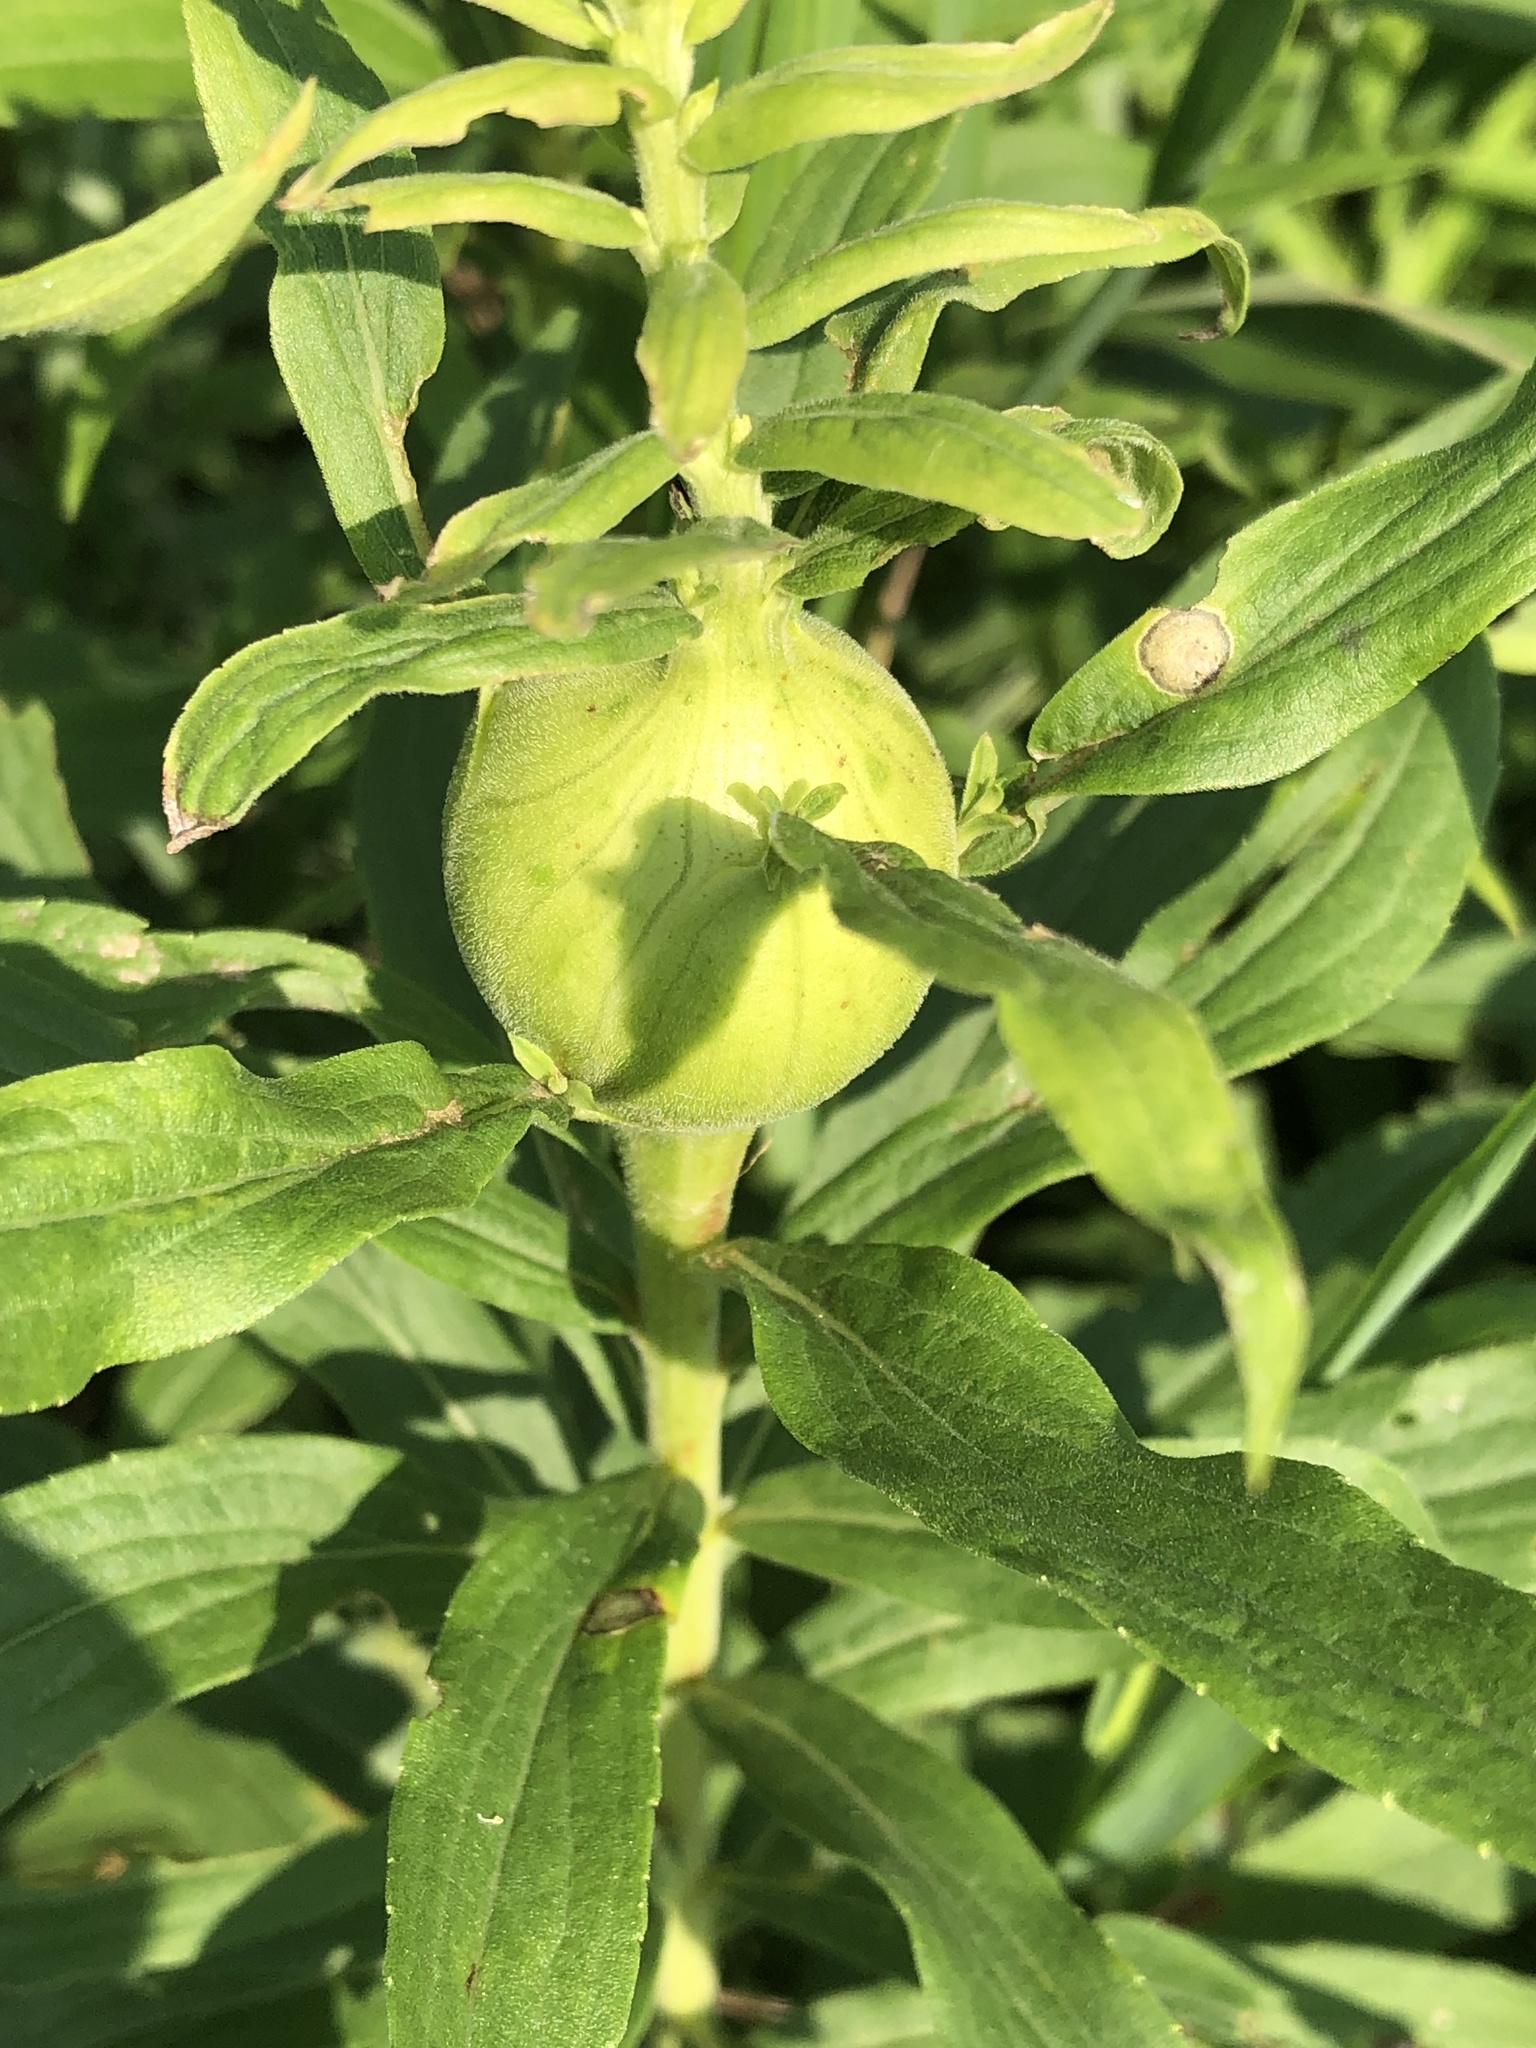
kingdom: Animalia
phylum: Arthropoda
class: Insecta
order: Diptera
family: Tephritidae
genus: Eurosta
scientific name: Eurosta solidaginis
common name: Goldenrod gall fly
